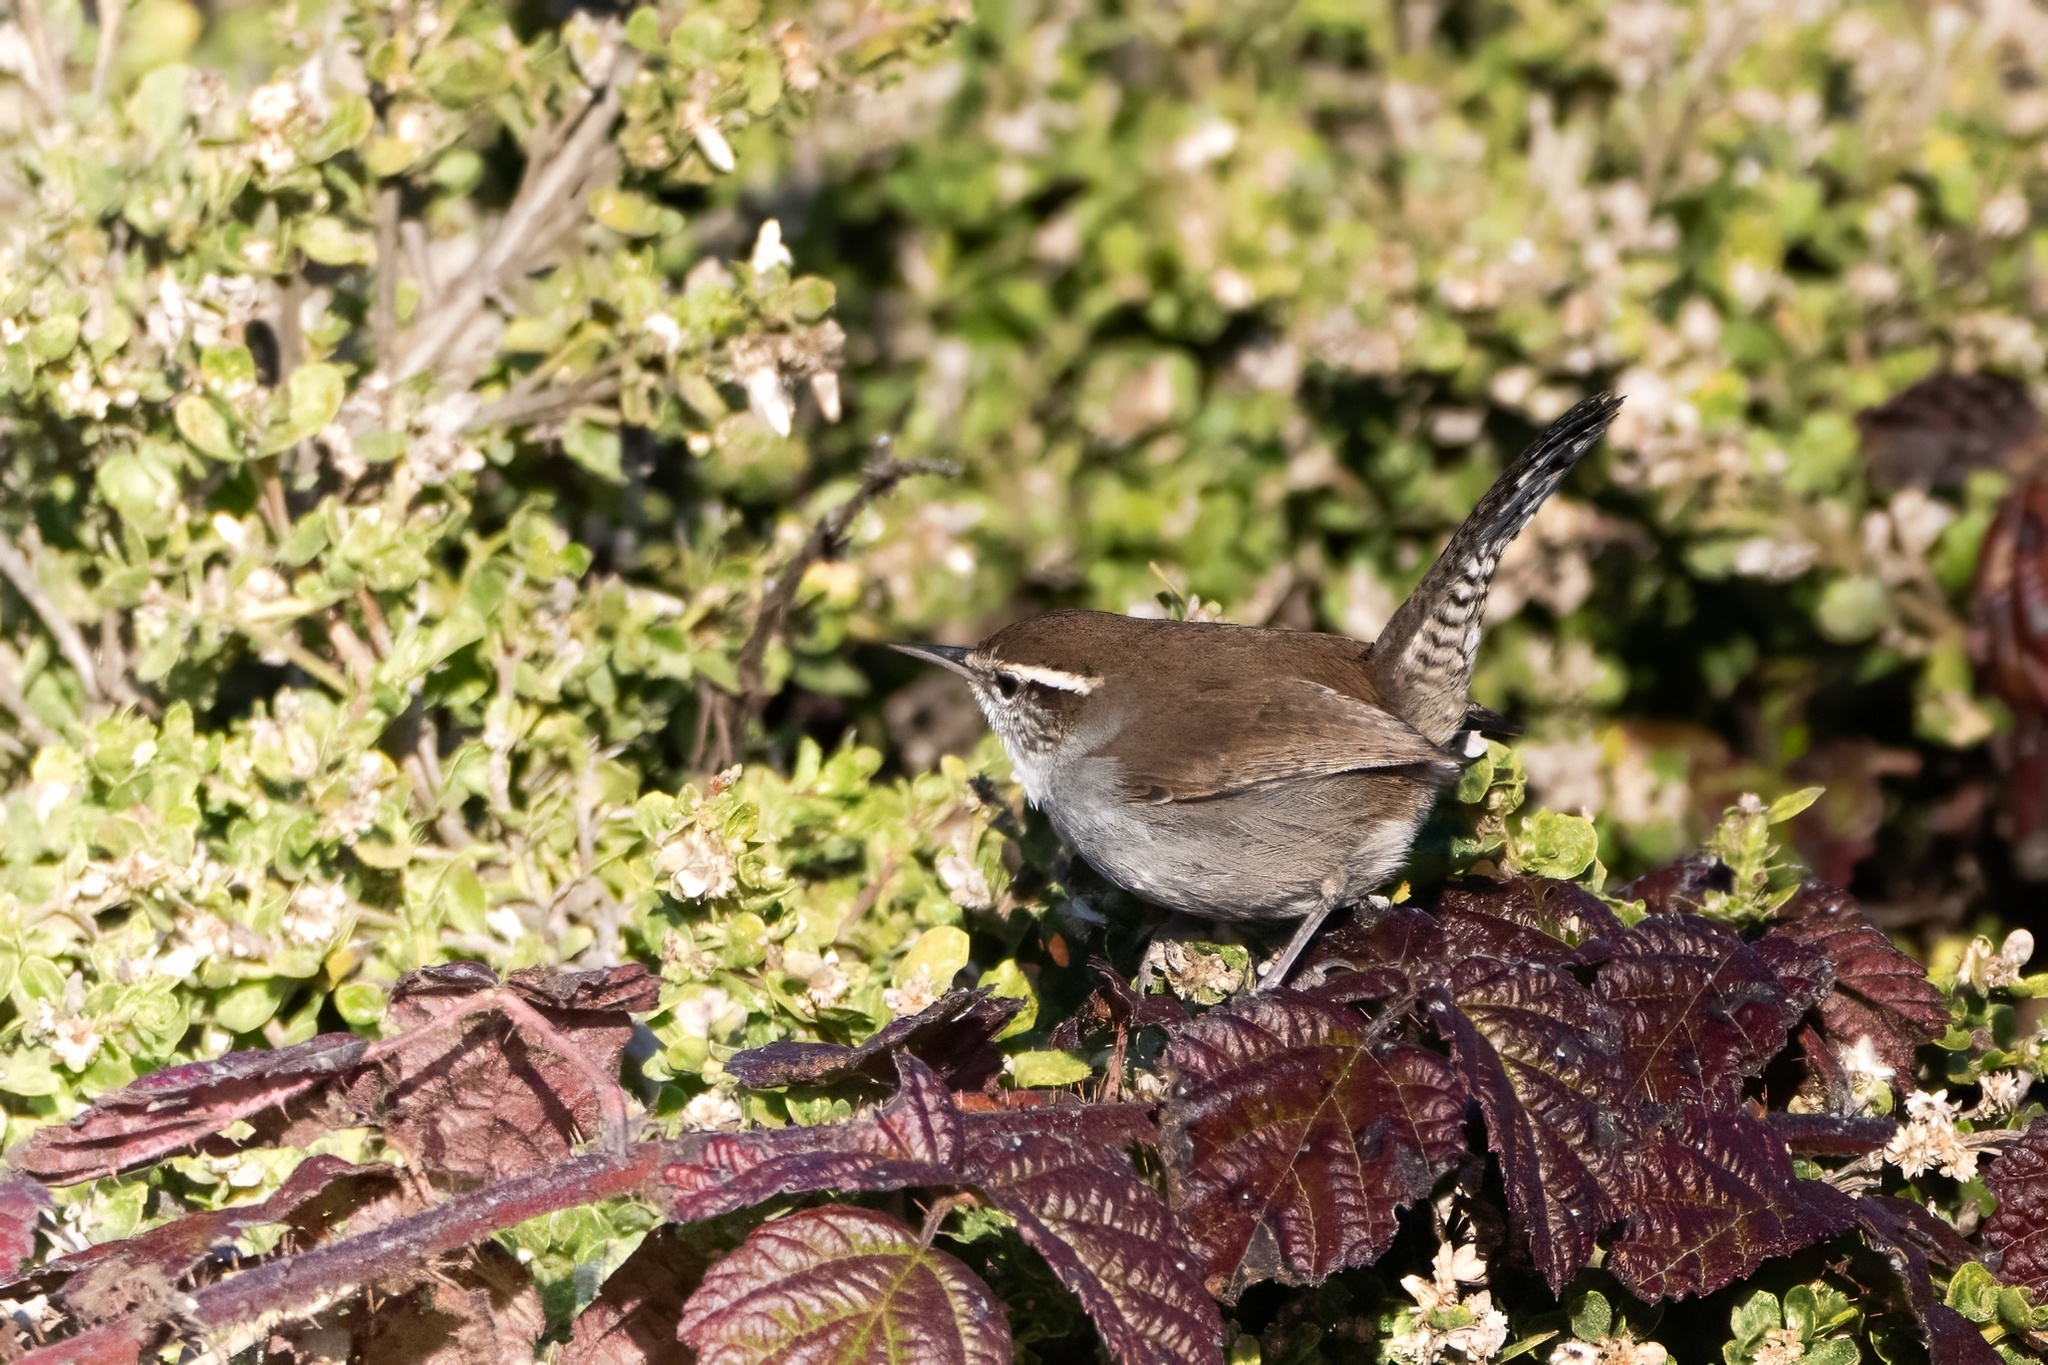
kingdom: Animalia
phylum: Chordata
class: Aves
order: Passeriformes
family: Troglodytidae
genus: Thryomanes
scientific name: Thryomanes bewickii
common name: Bewick's wren
